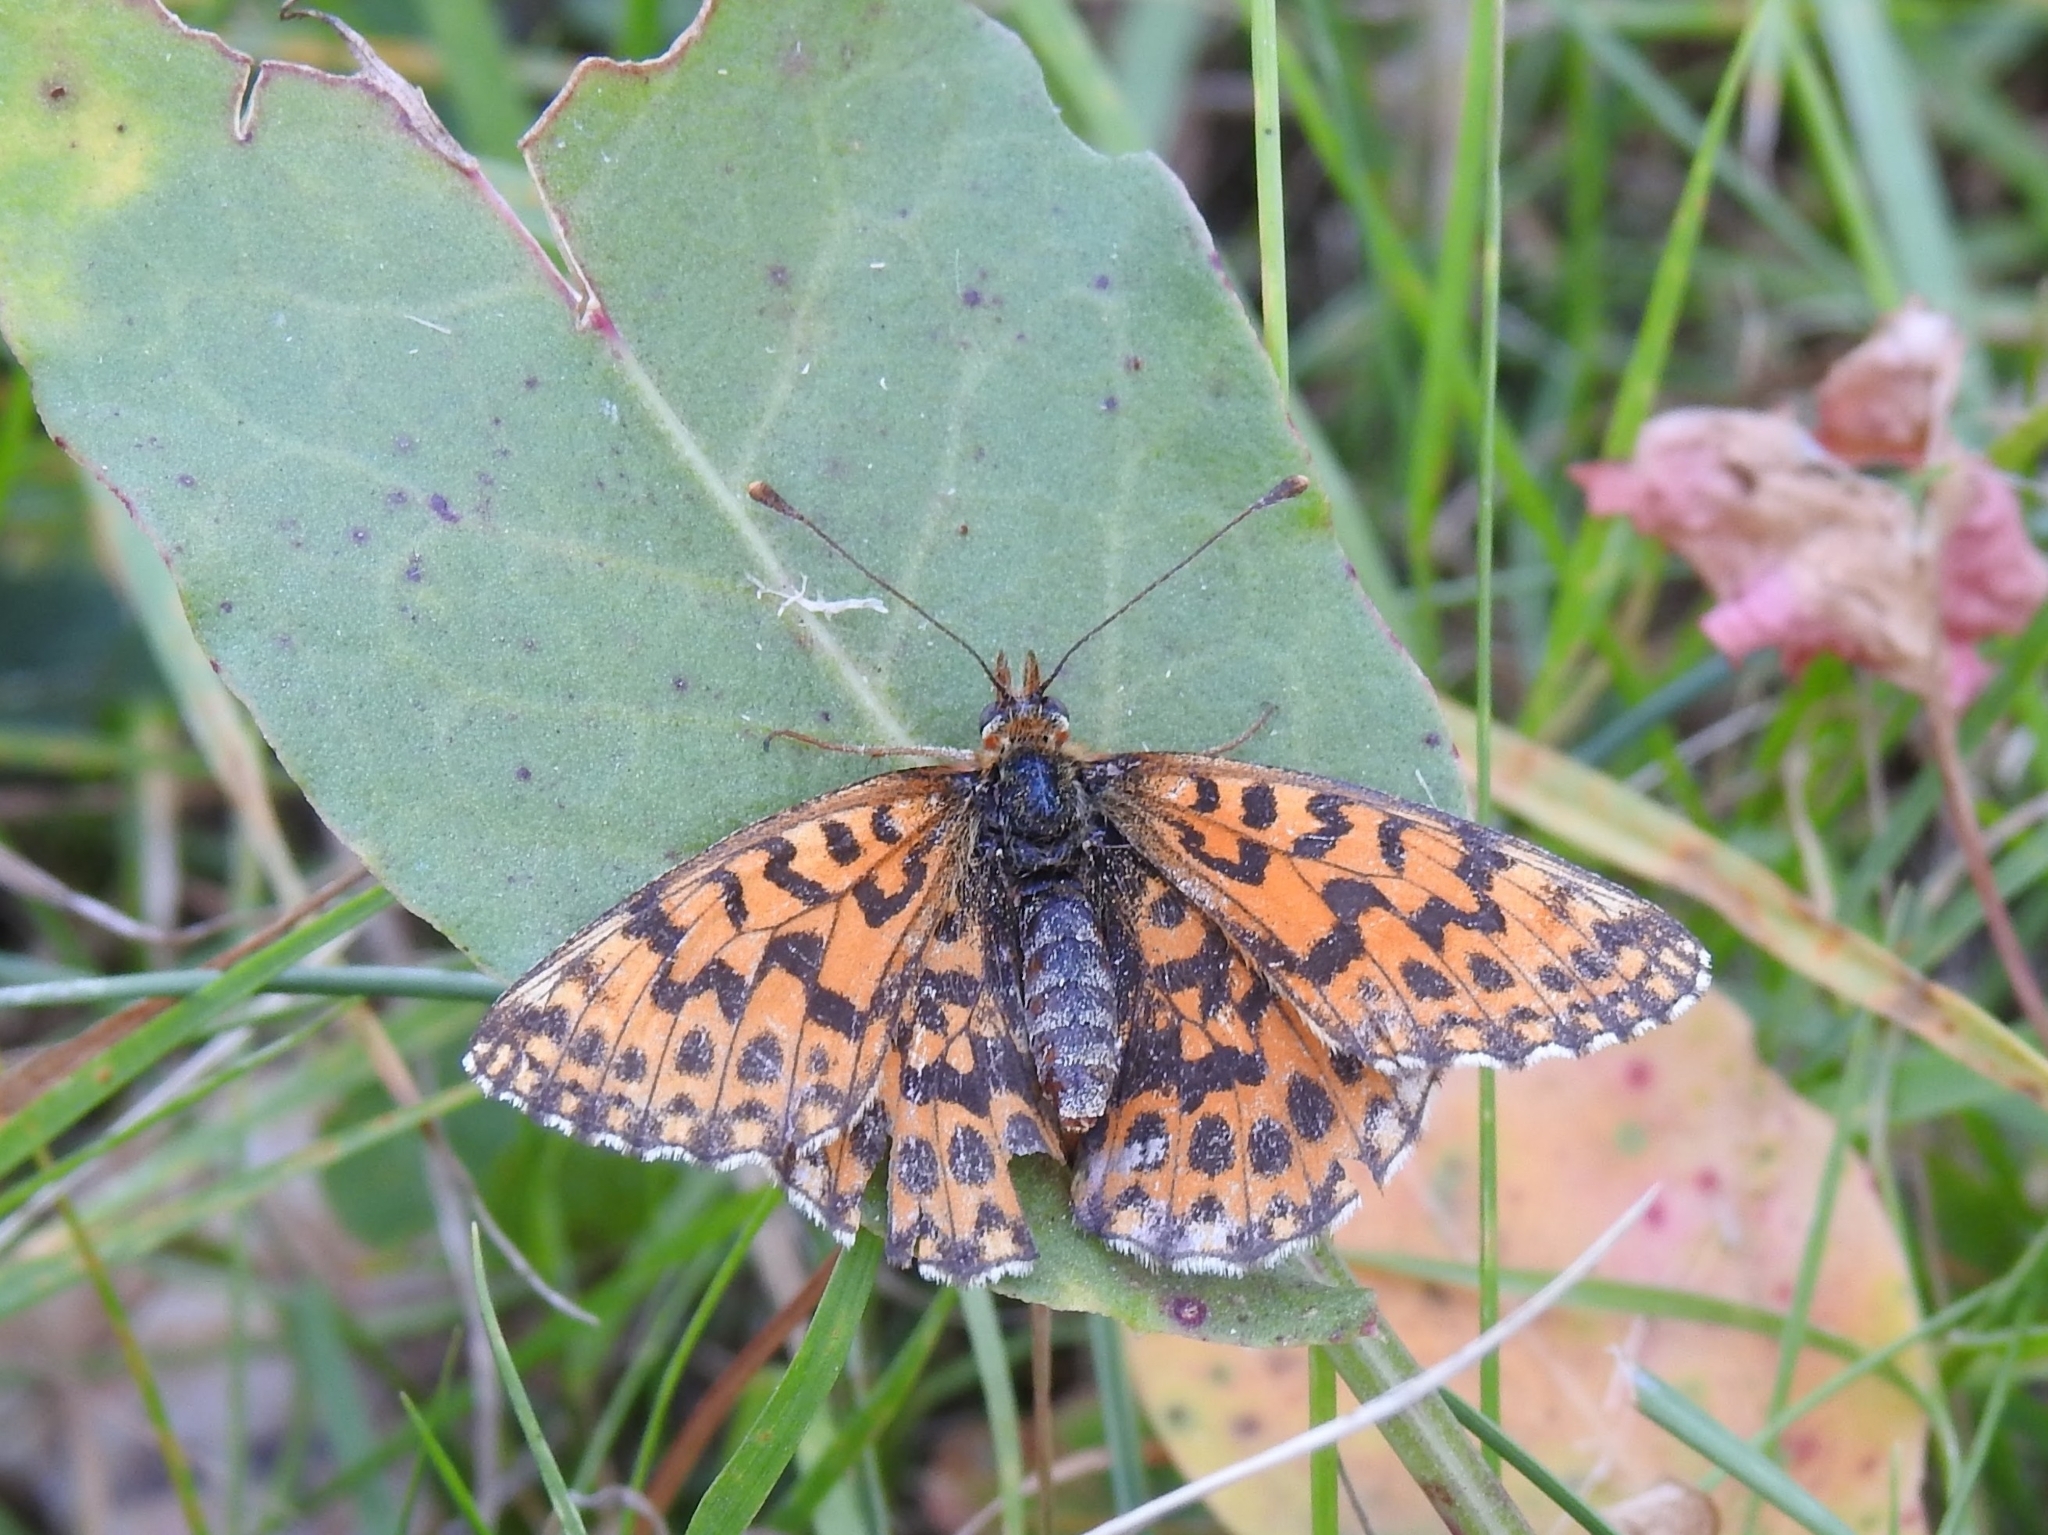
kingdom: Animalia
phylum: Arthropoda
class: Insecta
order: Lepidoptera
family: Nymphalidae
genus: Boloria
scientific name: Boloria dia
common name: Weaver's fritillary
